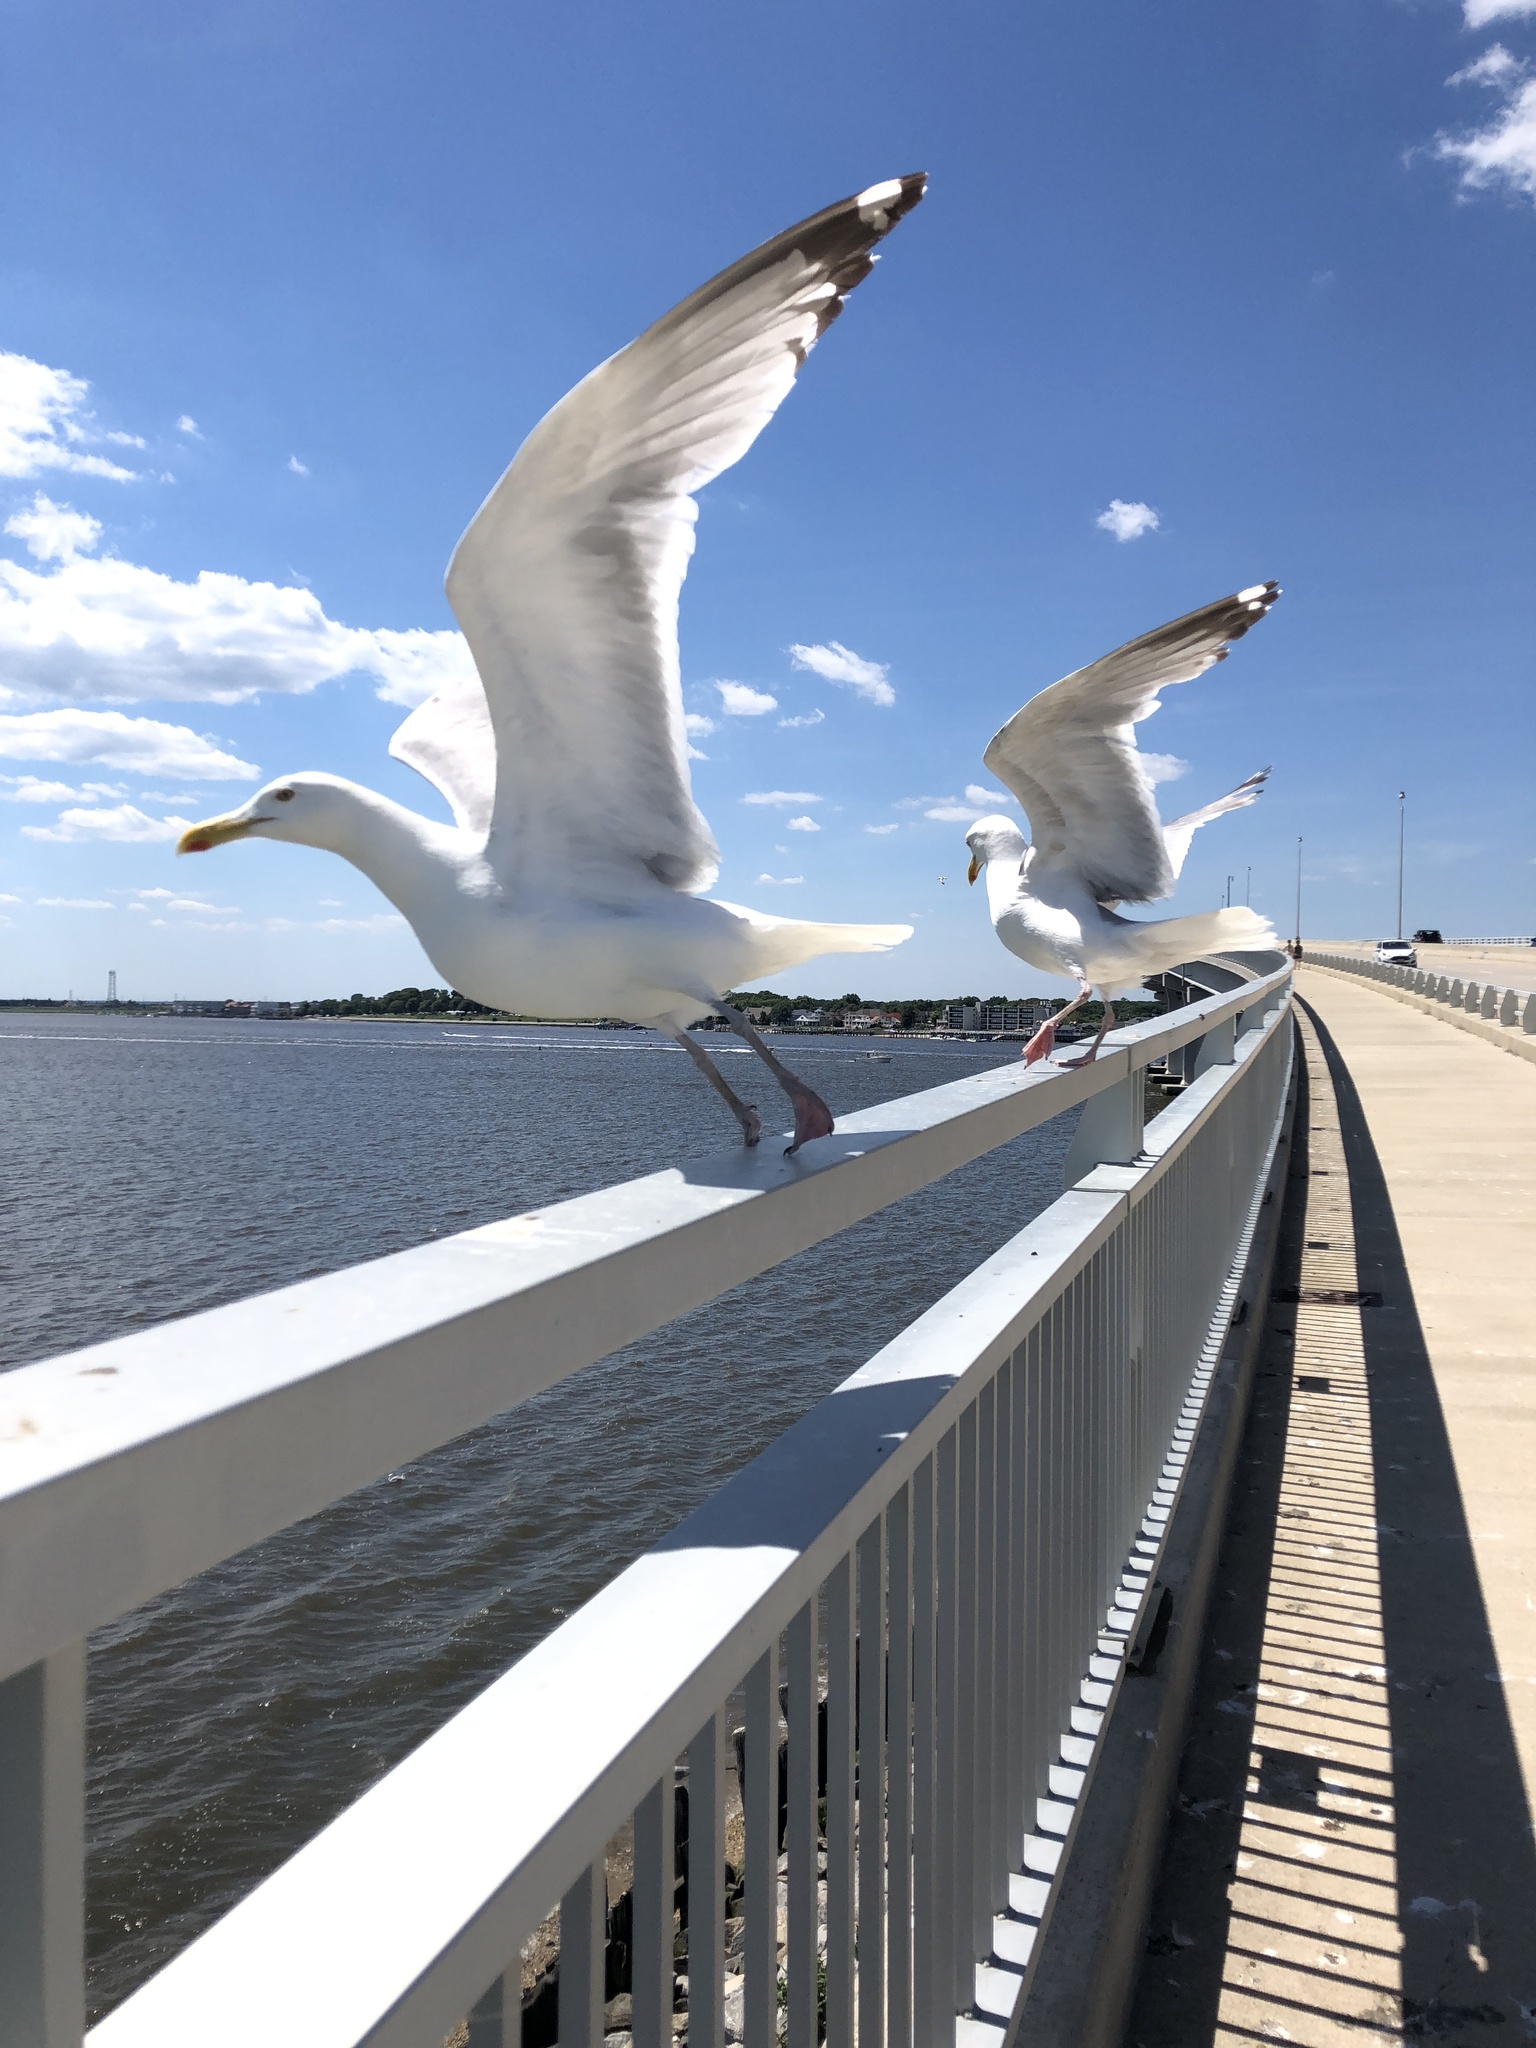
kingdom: Animalia
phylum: Chordata
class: Aves
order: Charadriiformes
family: Laridae
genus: Larus
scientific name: Larus argentatus
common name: Herring gull
